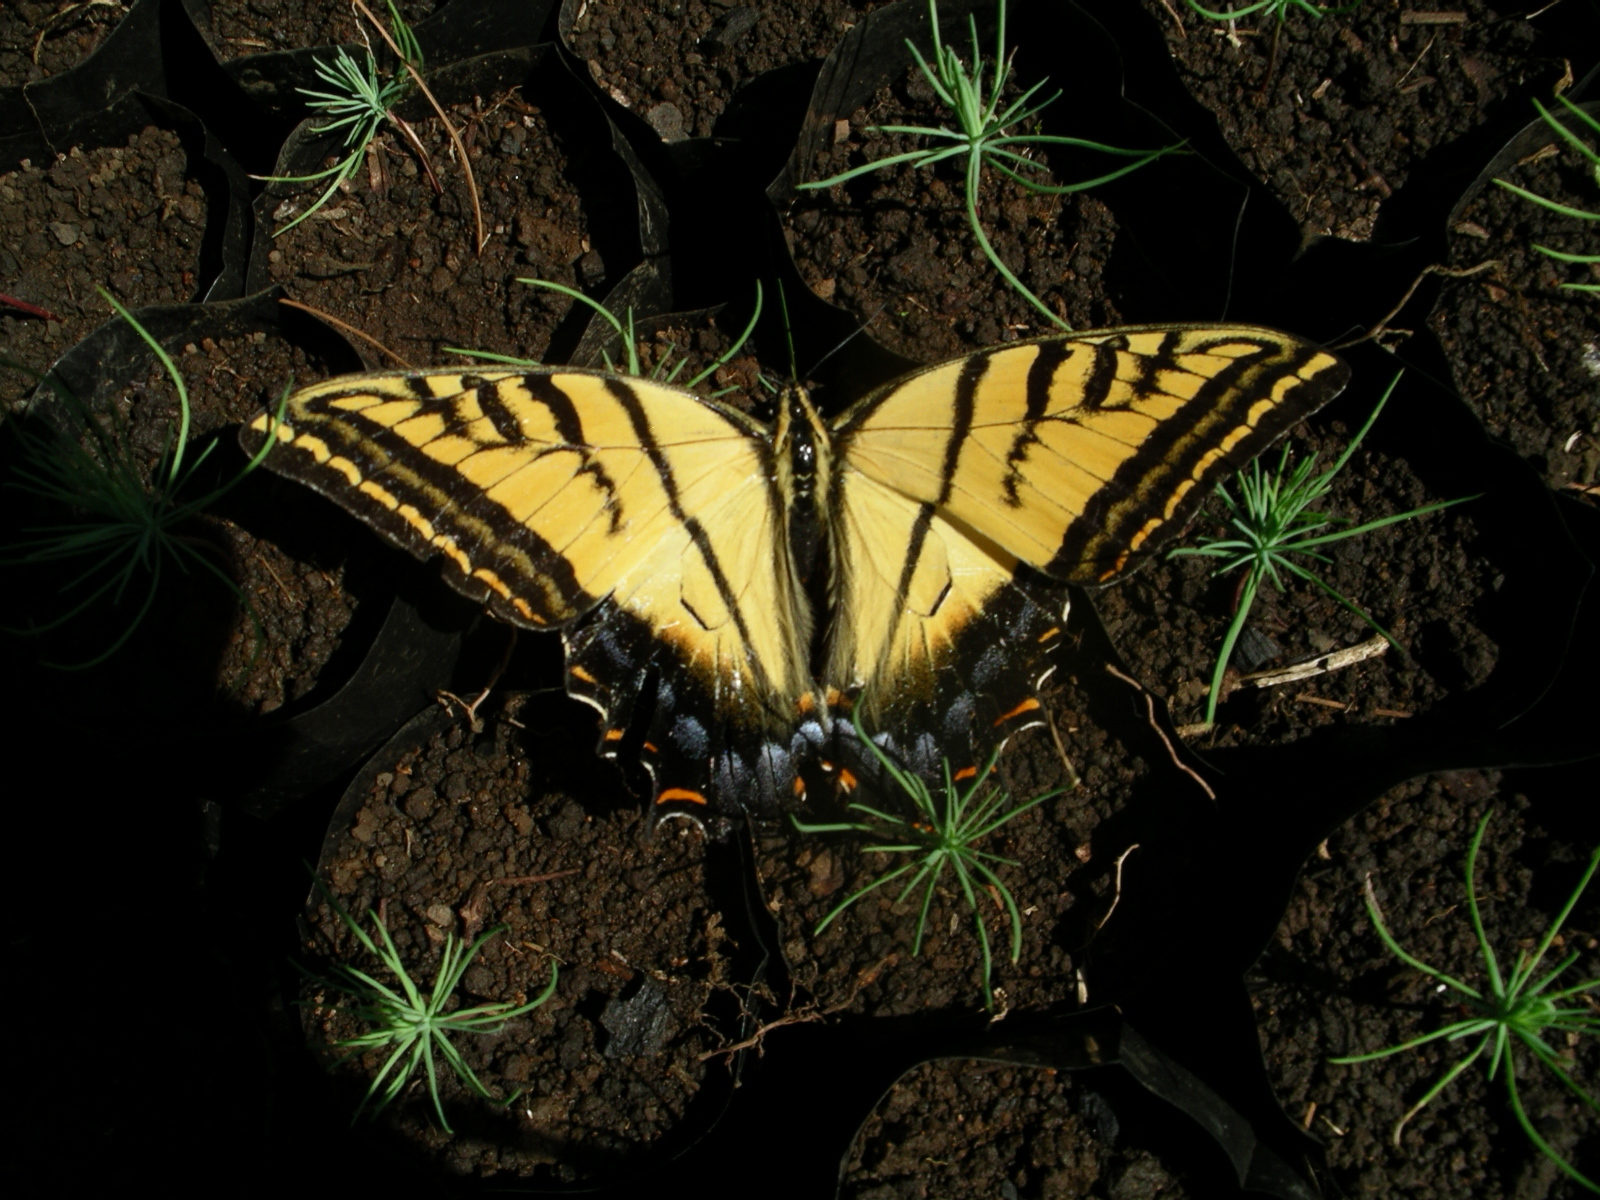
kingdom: Animalia
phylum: Arthropoda
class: Insecta
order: Lepidoptera
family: Papilionidae
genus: Papilio
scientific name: Papilio multicaudata
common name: Two-tailed tiger swallowtail
